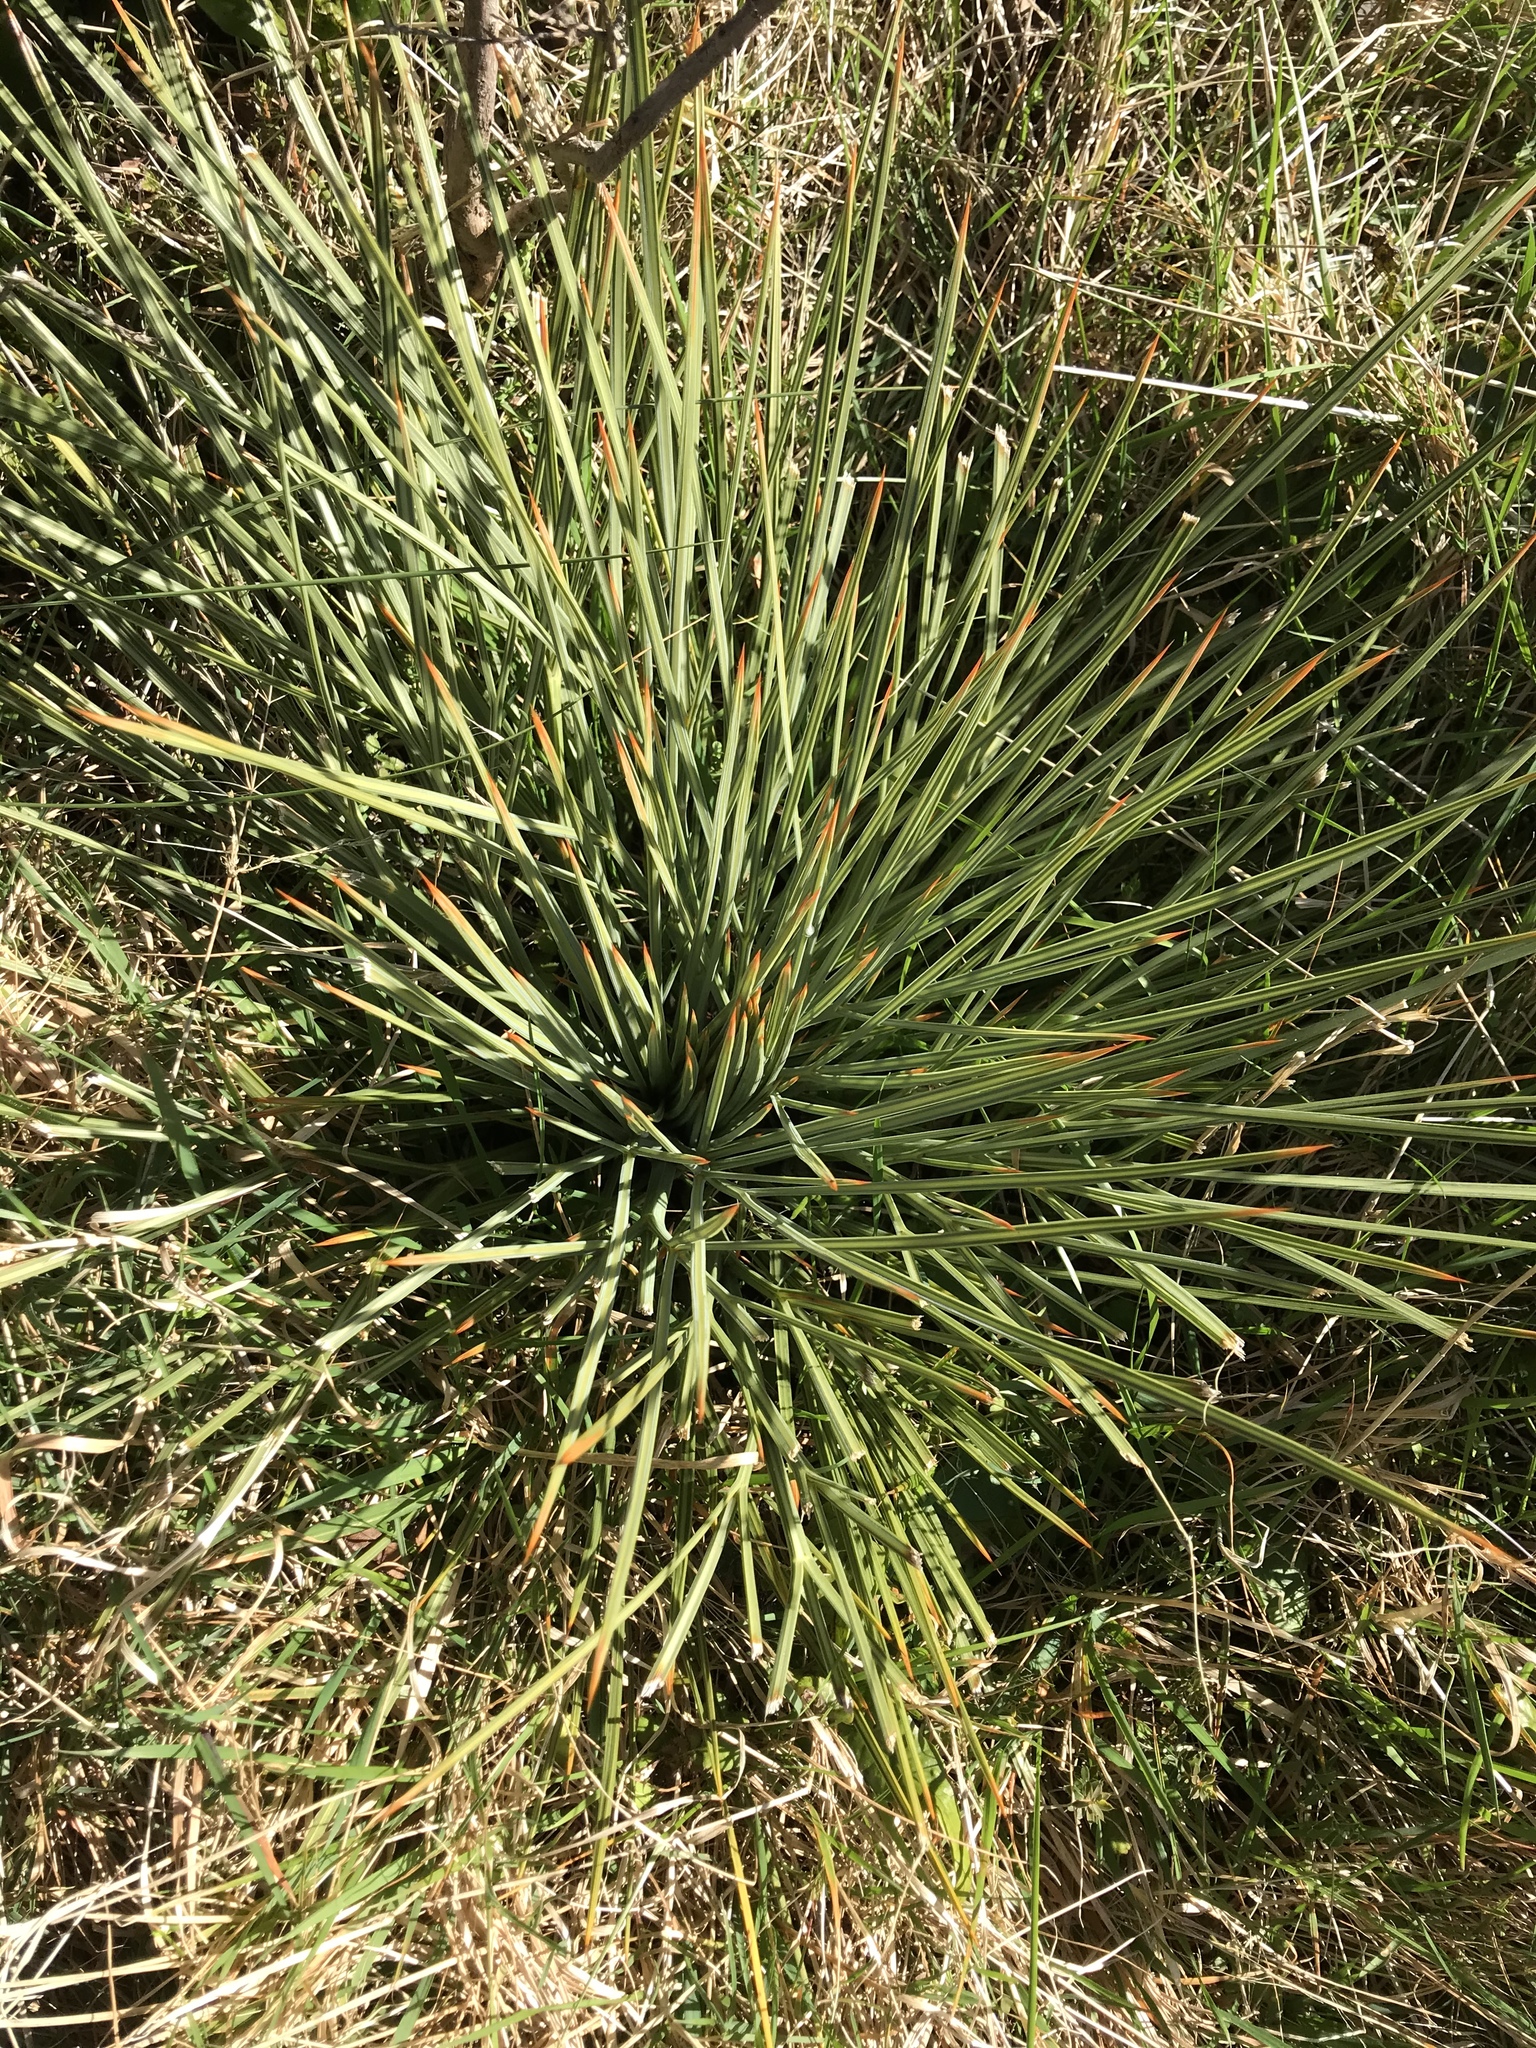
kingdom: Plantae
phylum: Tracheophyta
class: Magnoliopsida
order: Apiales
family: Apiaceae
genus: Aciphylla
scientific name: Aciphylla squarrosa
